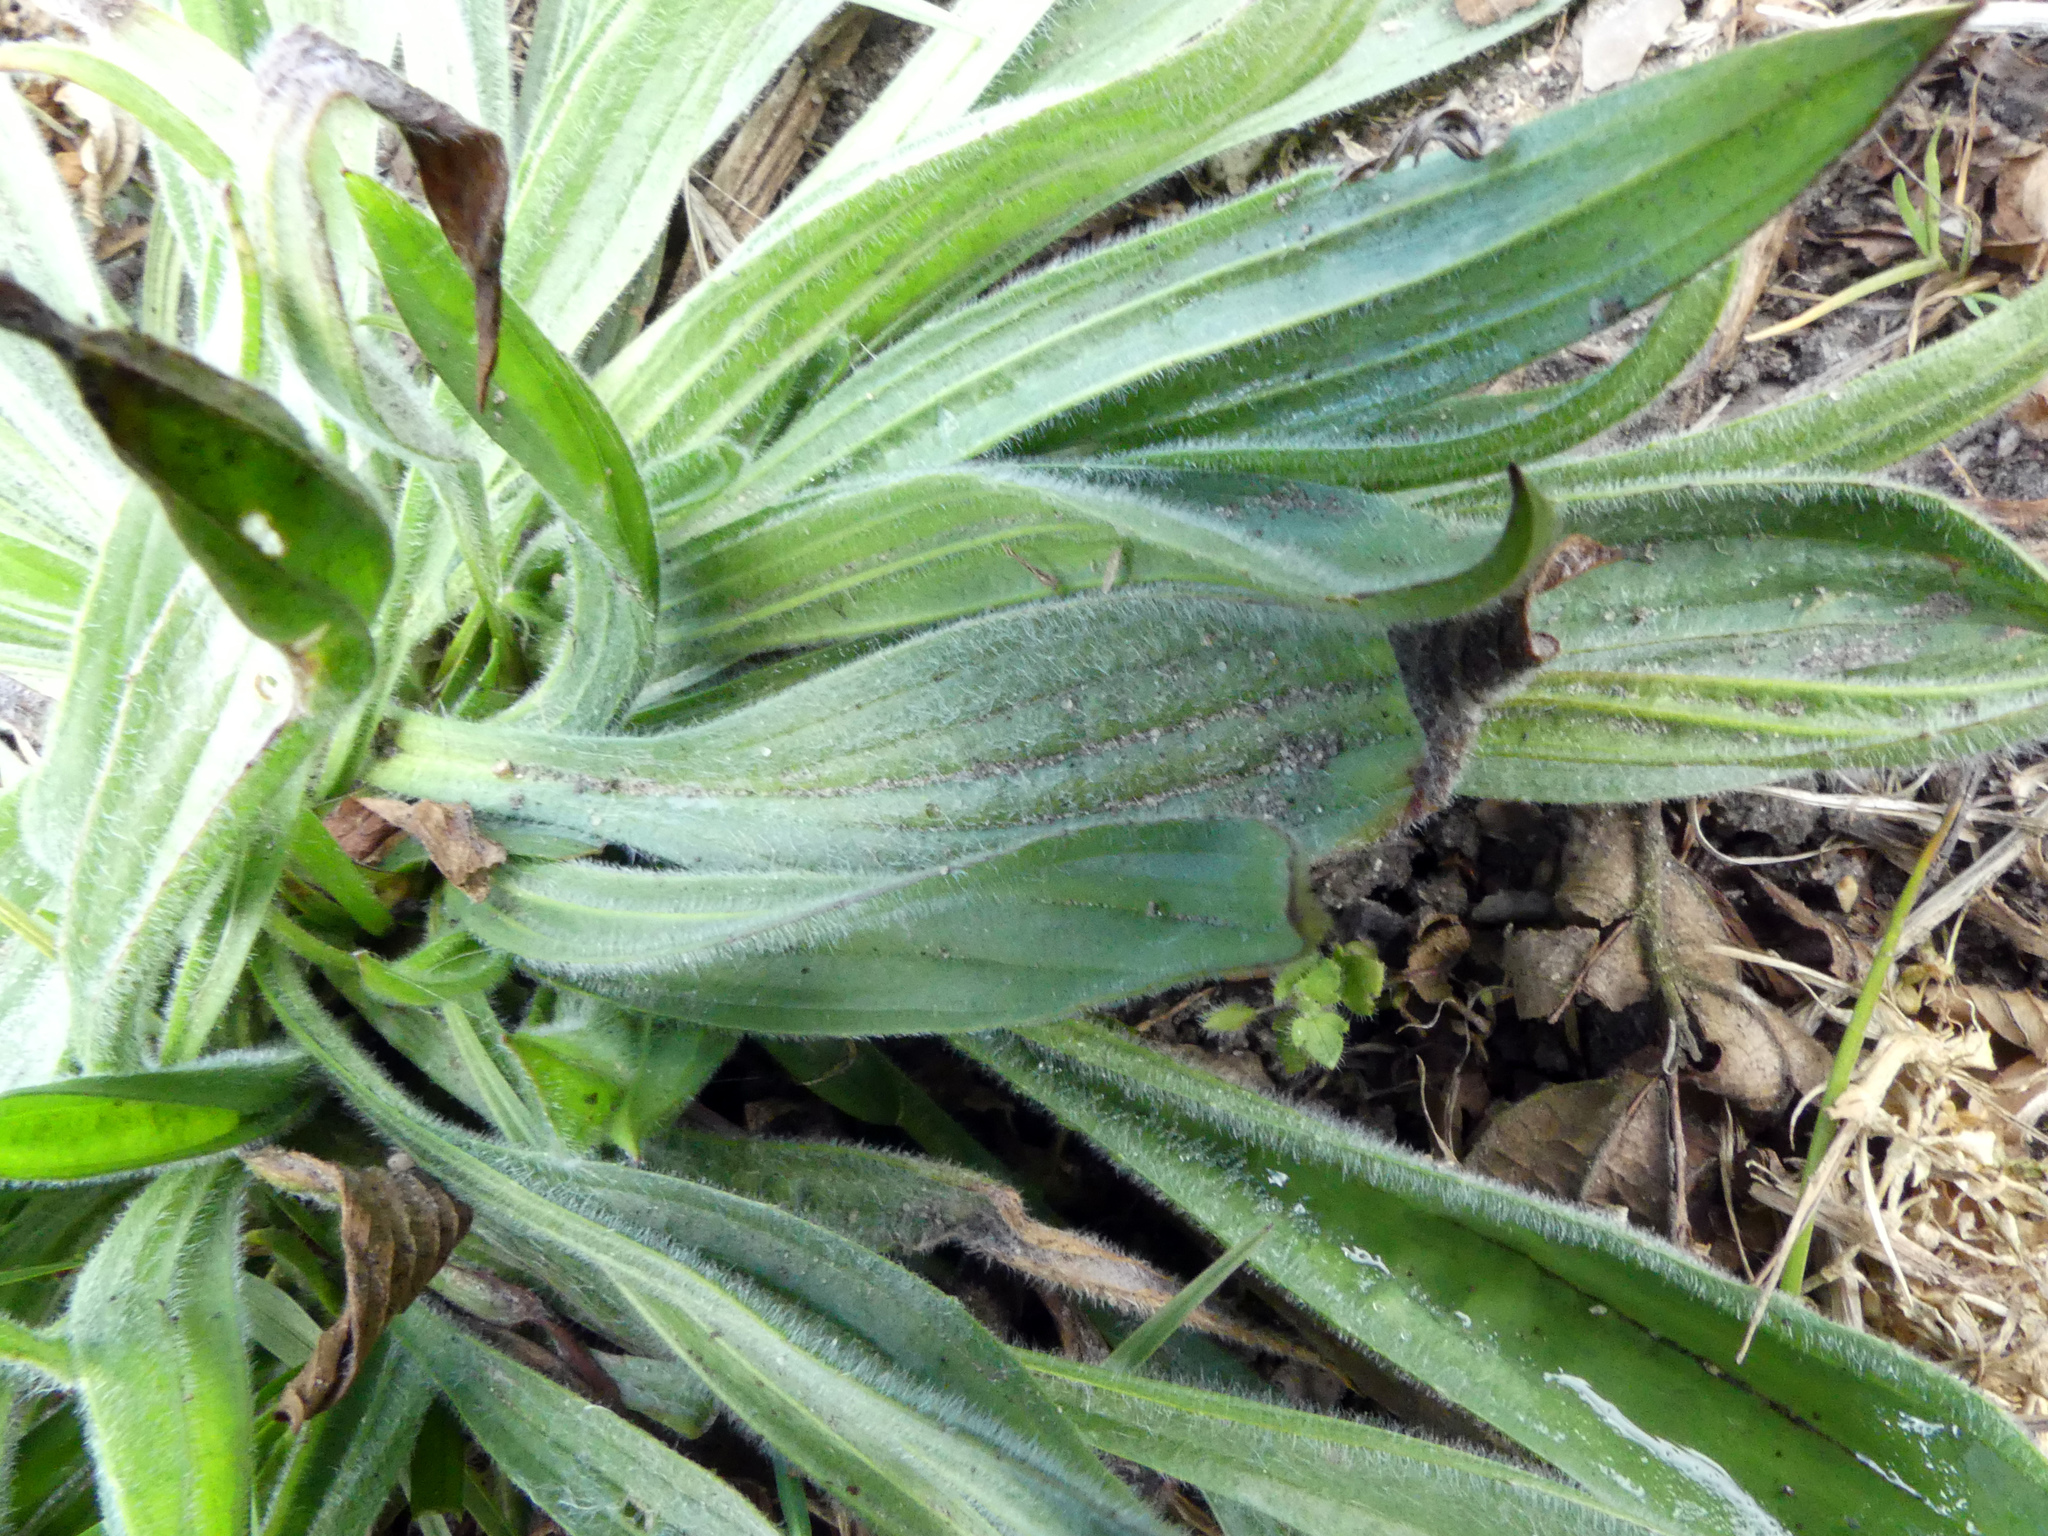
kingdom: Plantae
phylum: Tracheophyta
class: Magnoliopsida
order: Lamiales
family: Plantaginaceae
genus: Plantago
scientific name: Plantago lanceolata
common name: Ribwort plantain
